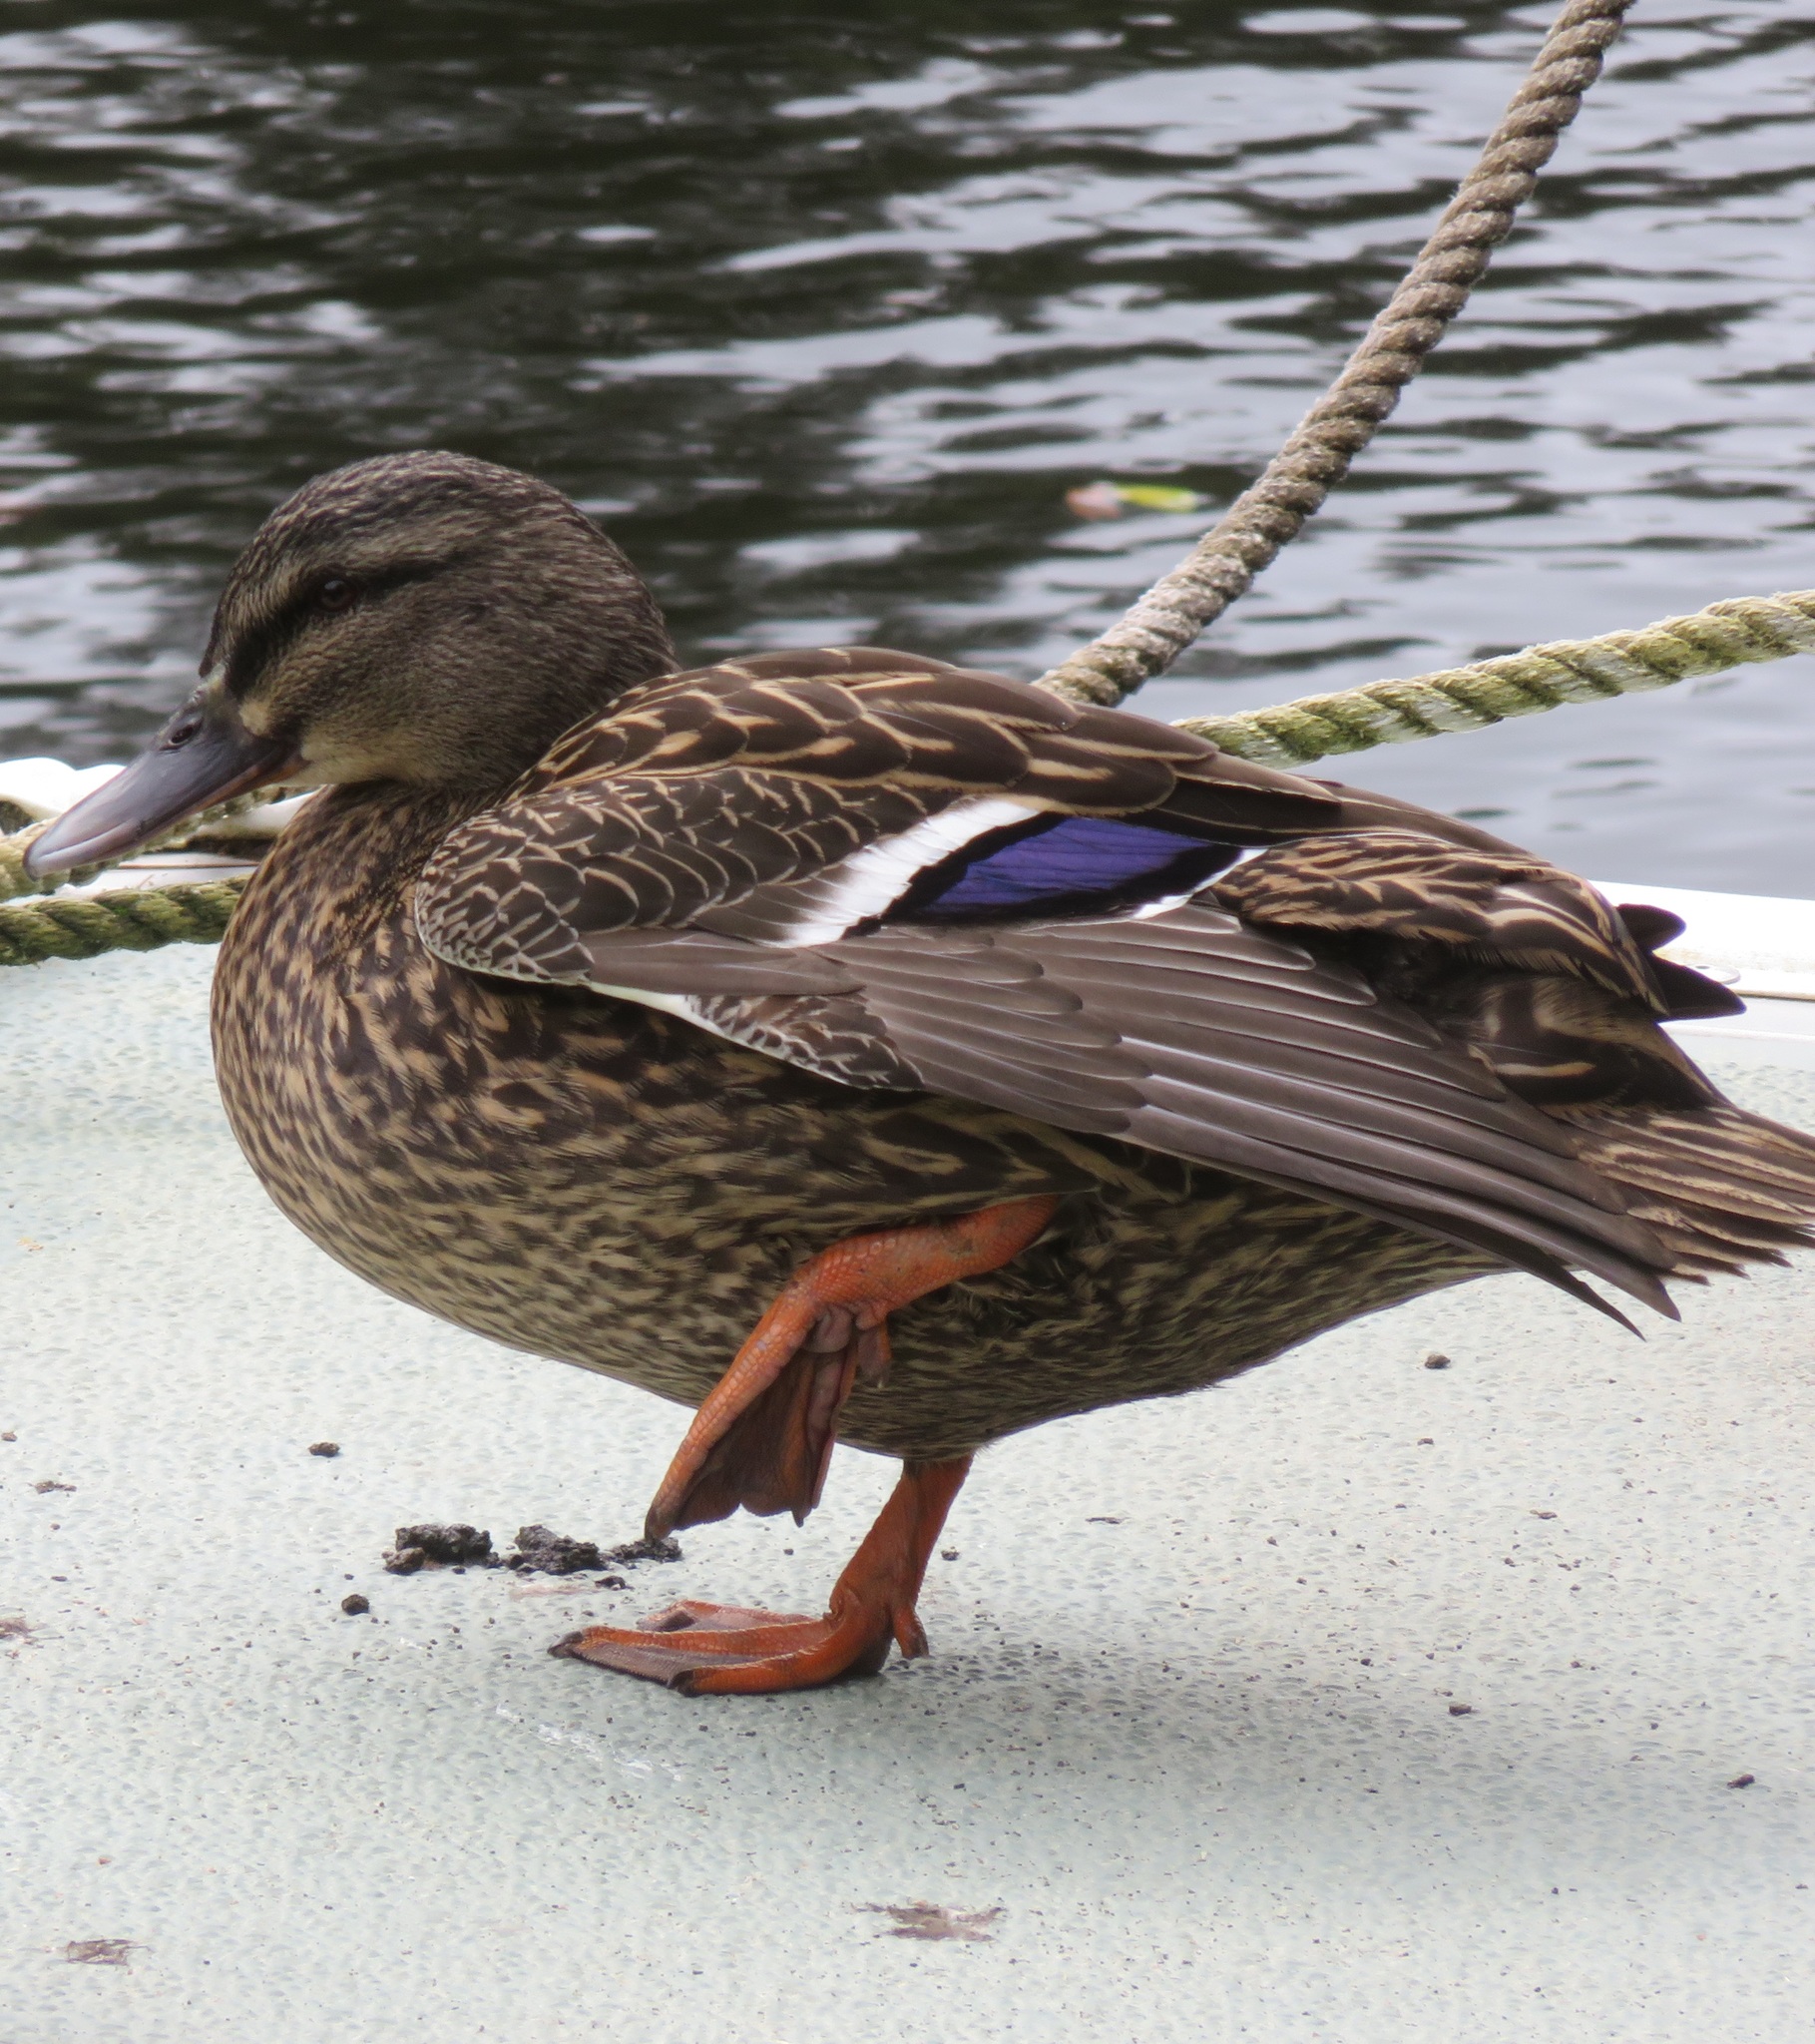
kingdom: Animalia
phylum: Chordata
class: Aves
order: Anseriformes
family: Anatidae
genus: Anas
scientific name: Anas
